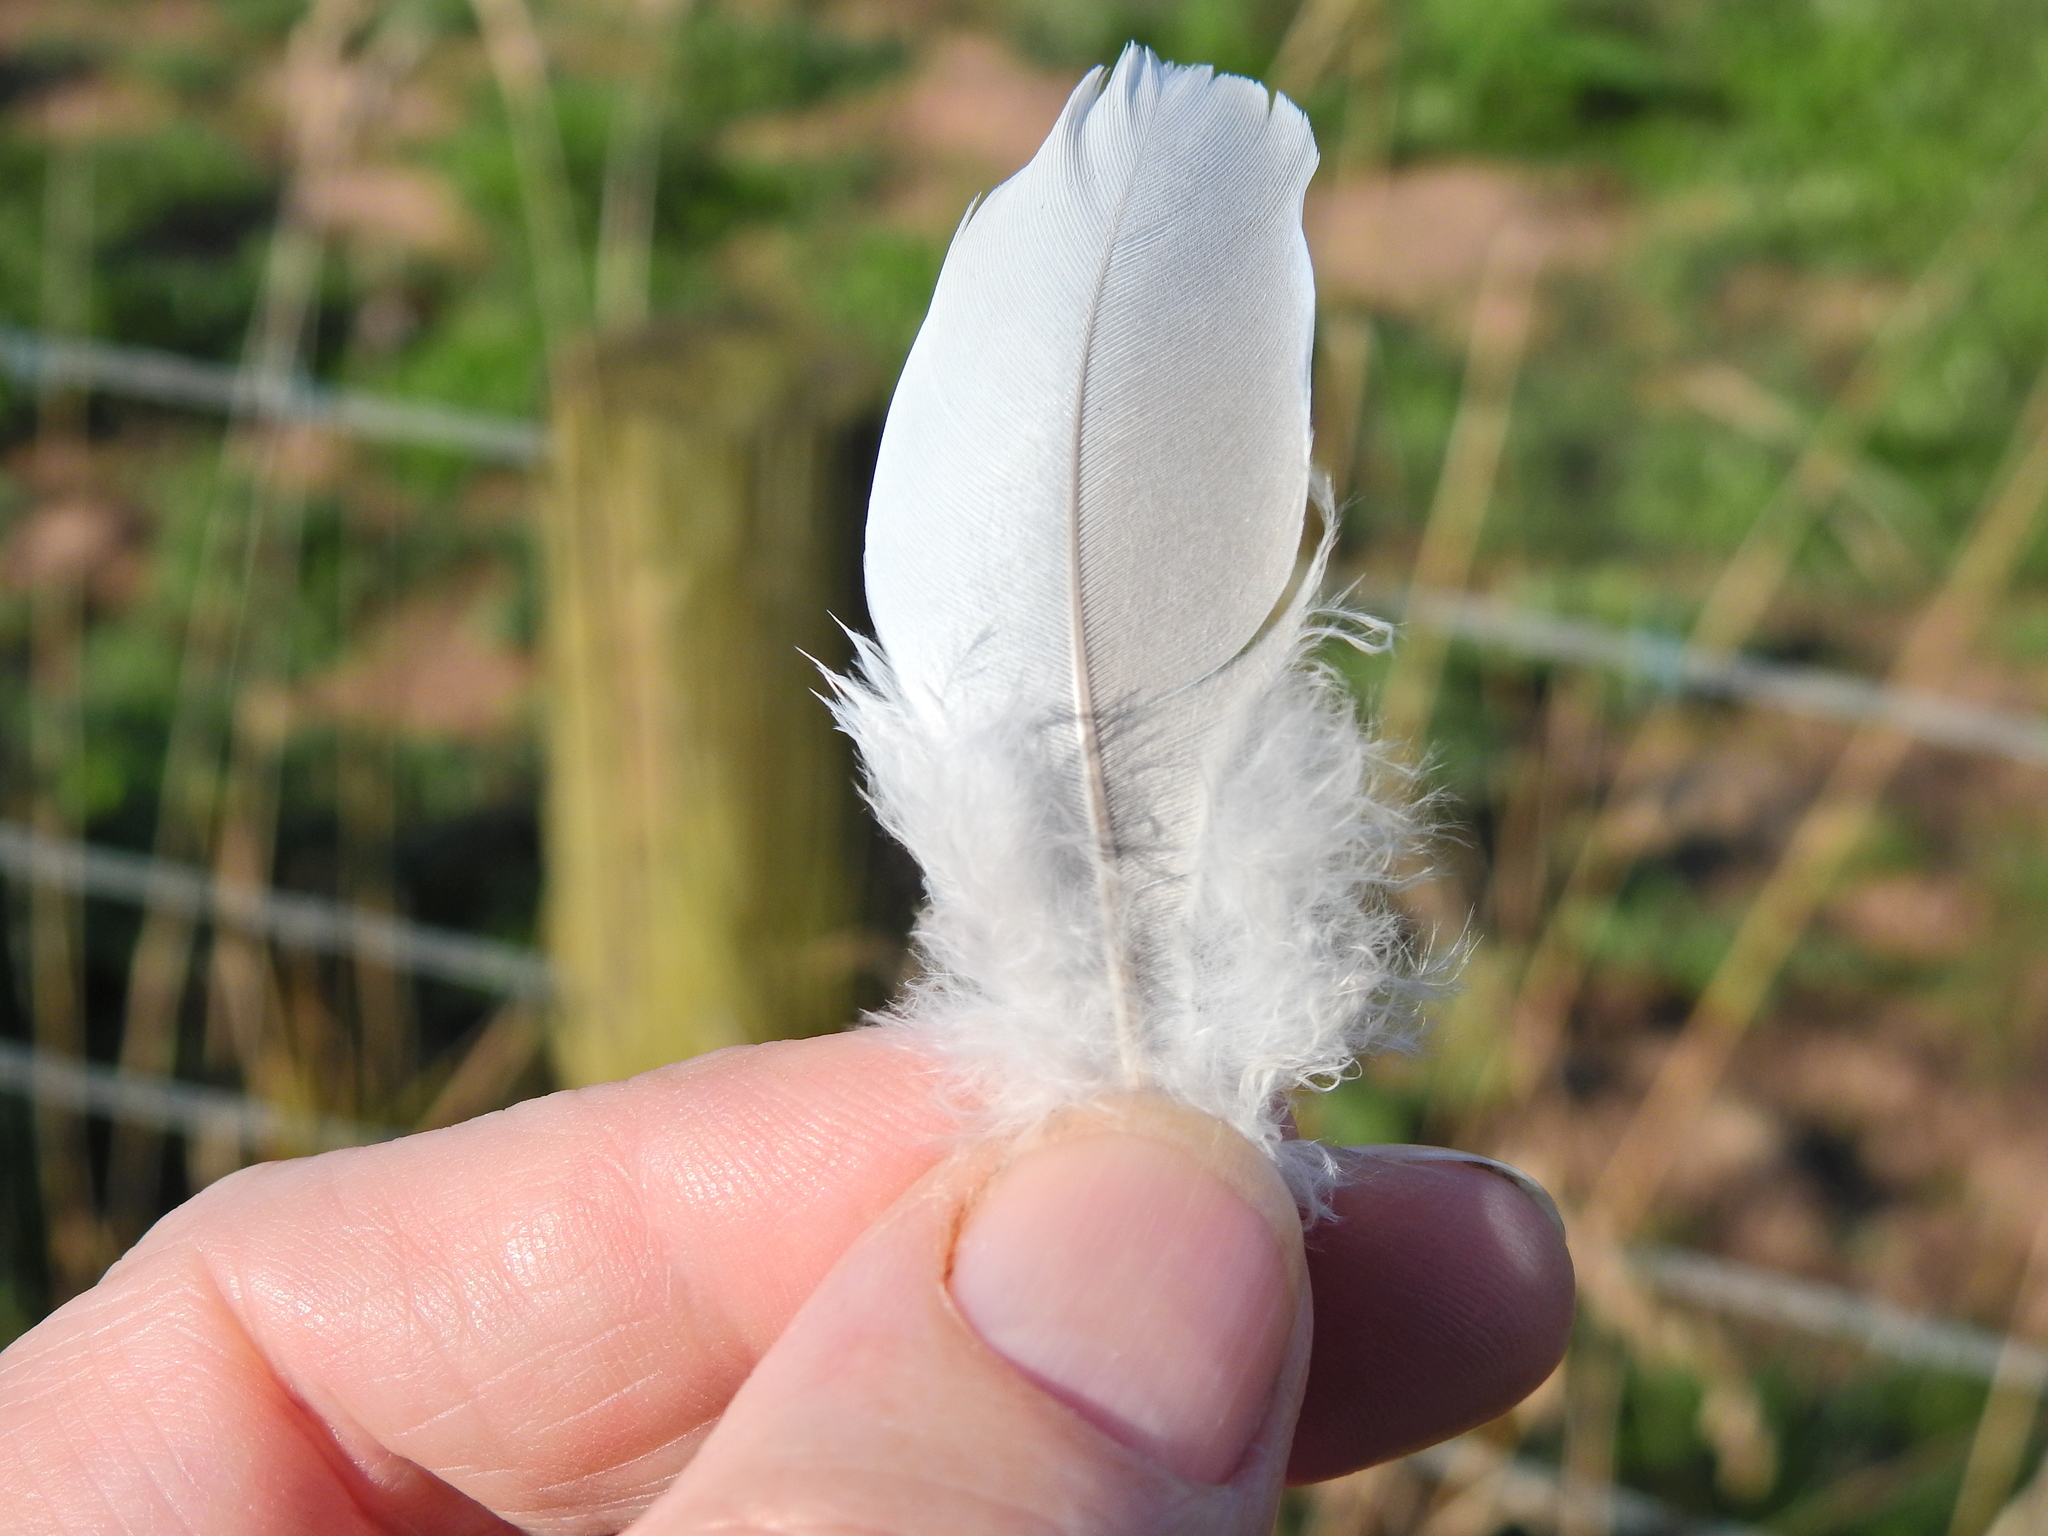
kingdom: Animalia
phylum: Chordata
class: Aves
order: Columbiformes
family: Columbidae
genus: Columba
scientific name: Columba palumbus
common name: Common wood pigeon
